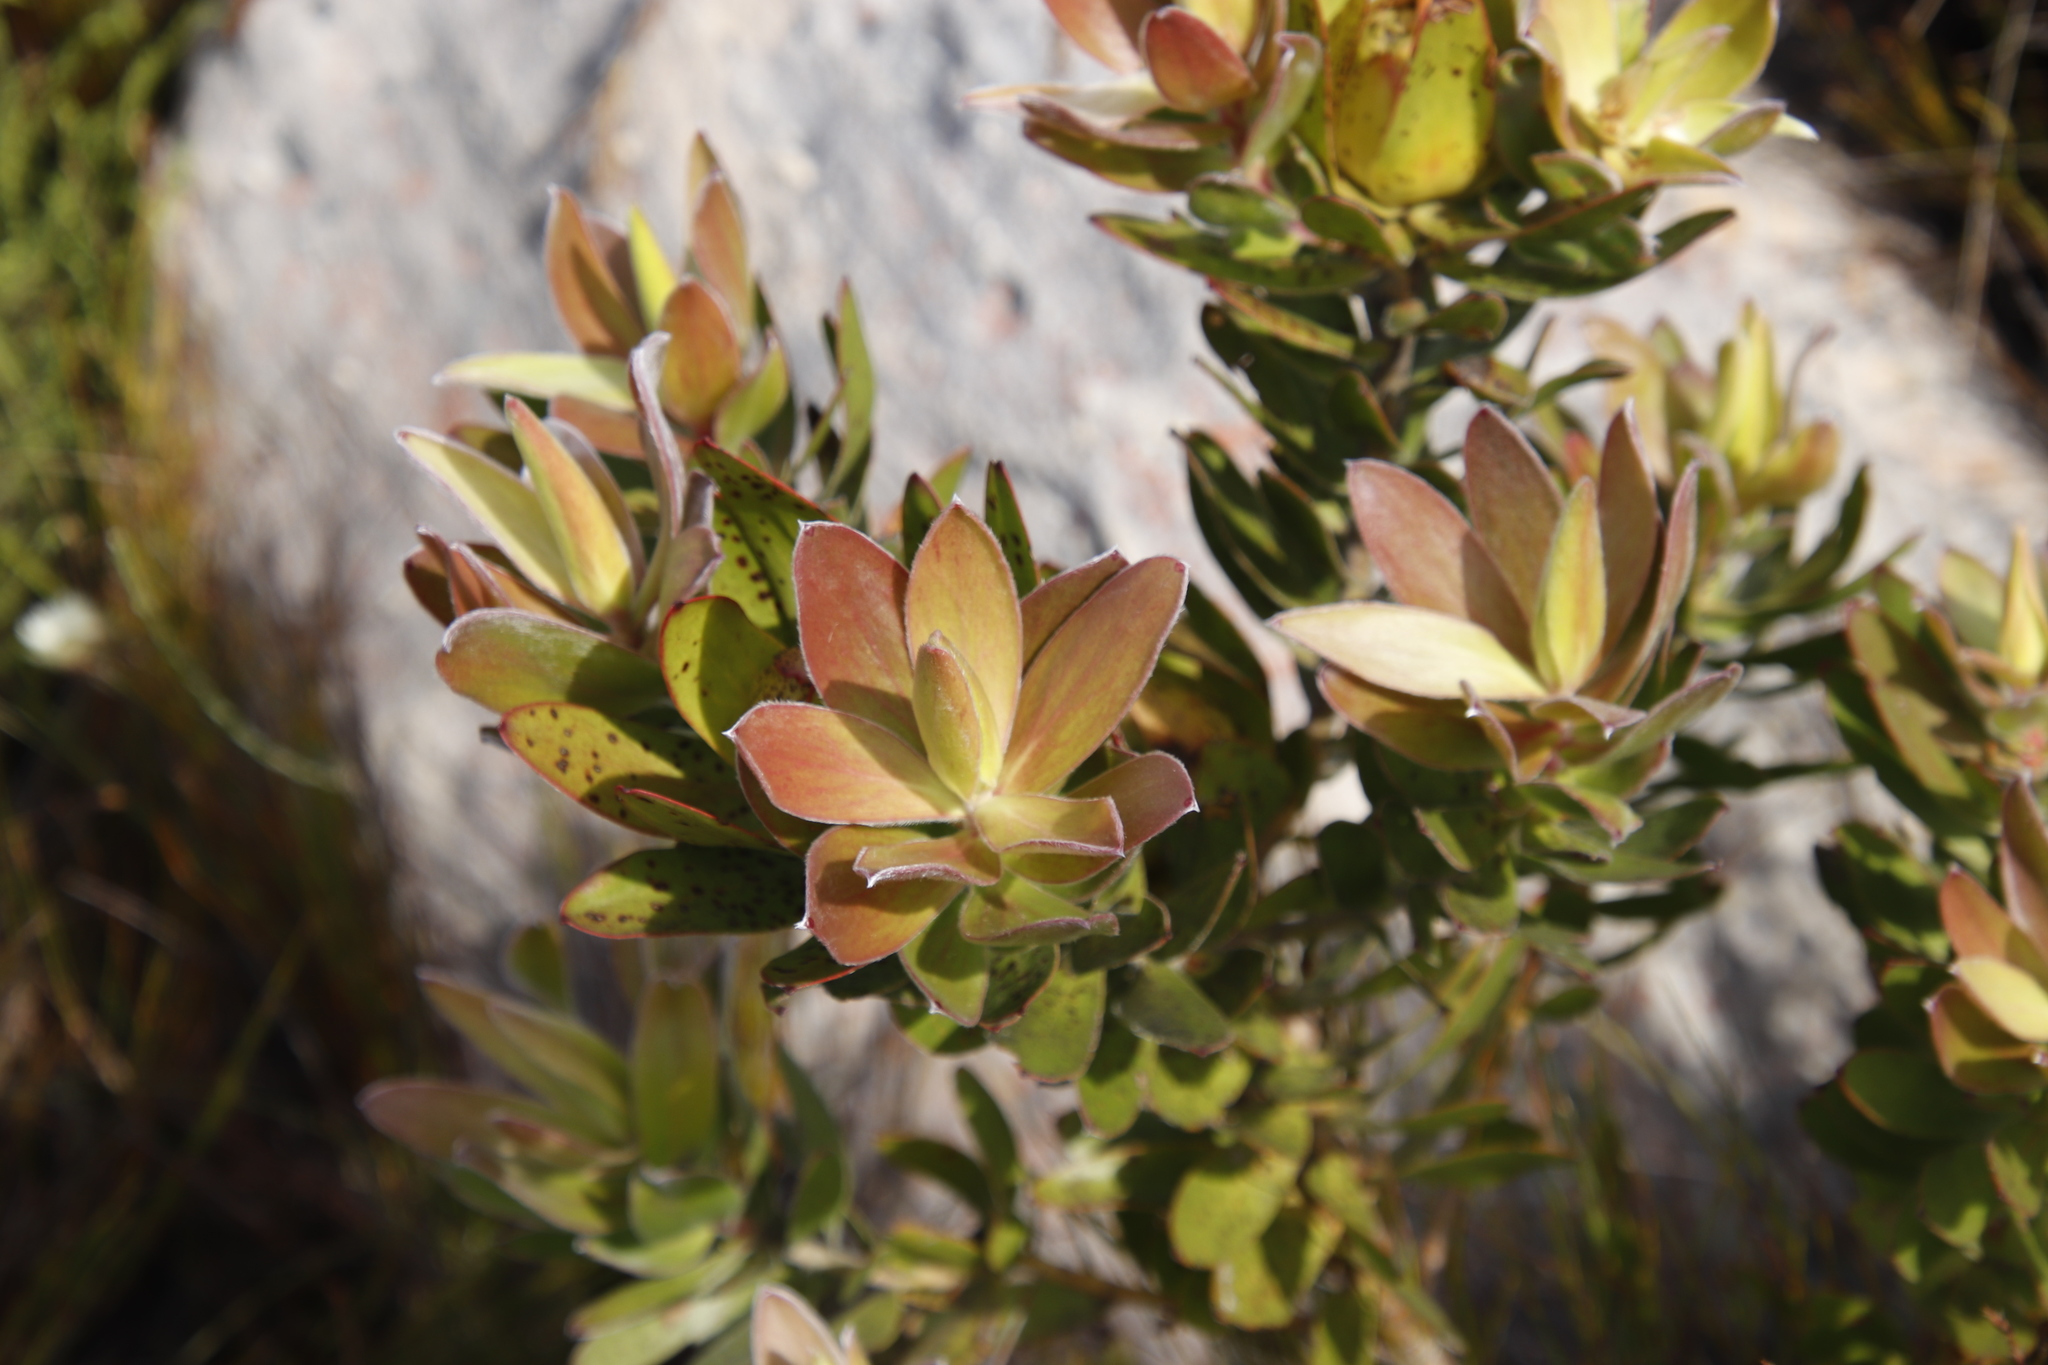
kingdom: Plantae
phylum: Tracheophyta
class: Magnoliopsida
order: Proteales
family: Proteaceae
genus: Leucadendron
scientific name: Leucadendron laureolum
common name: Golden sunshinebush
